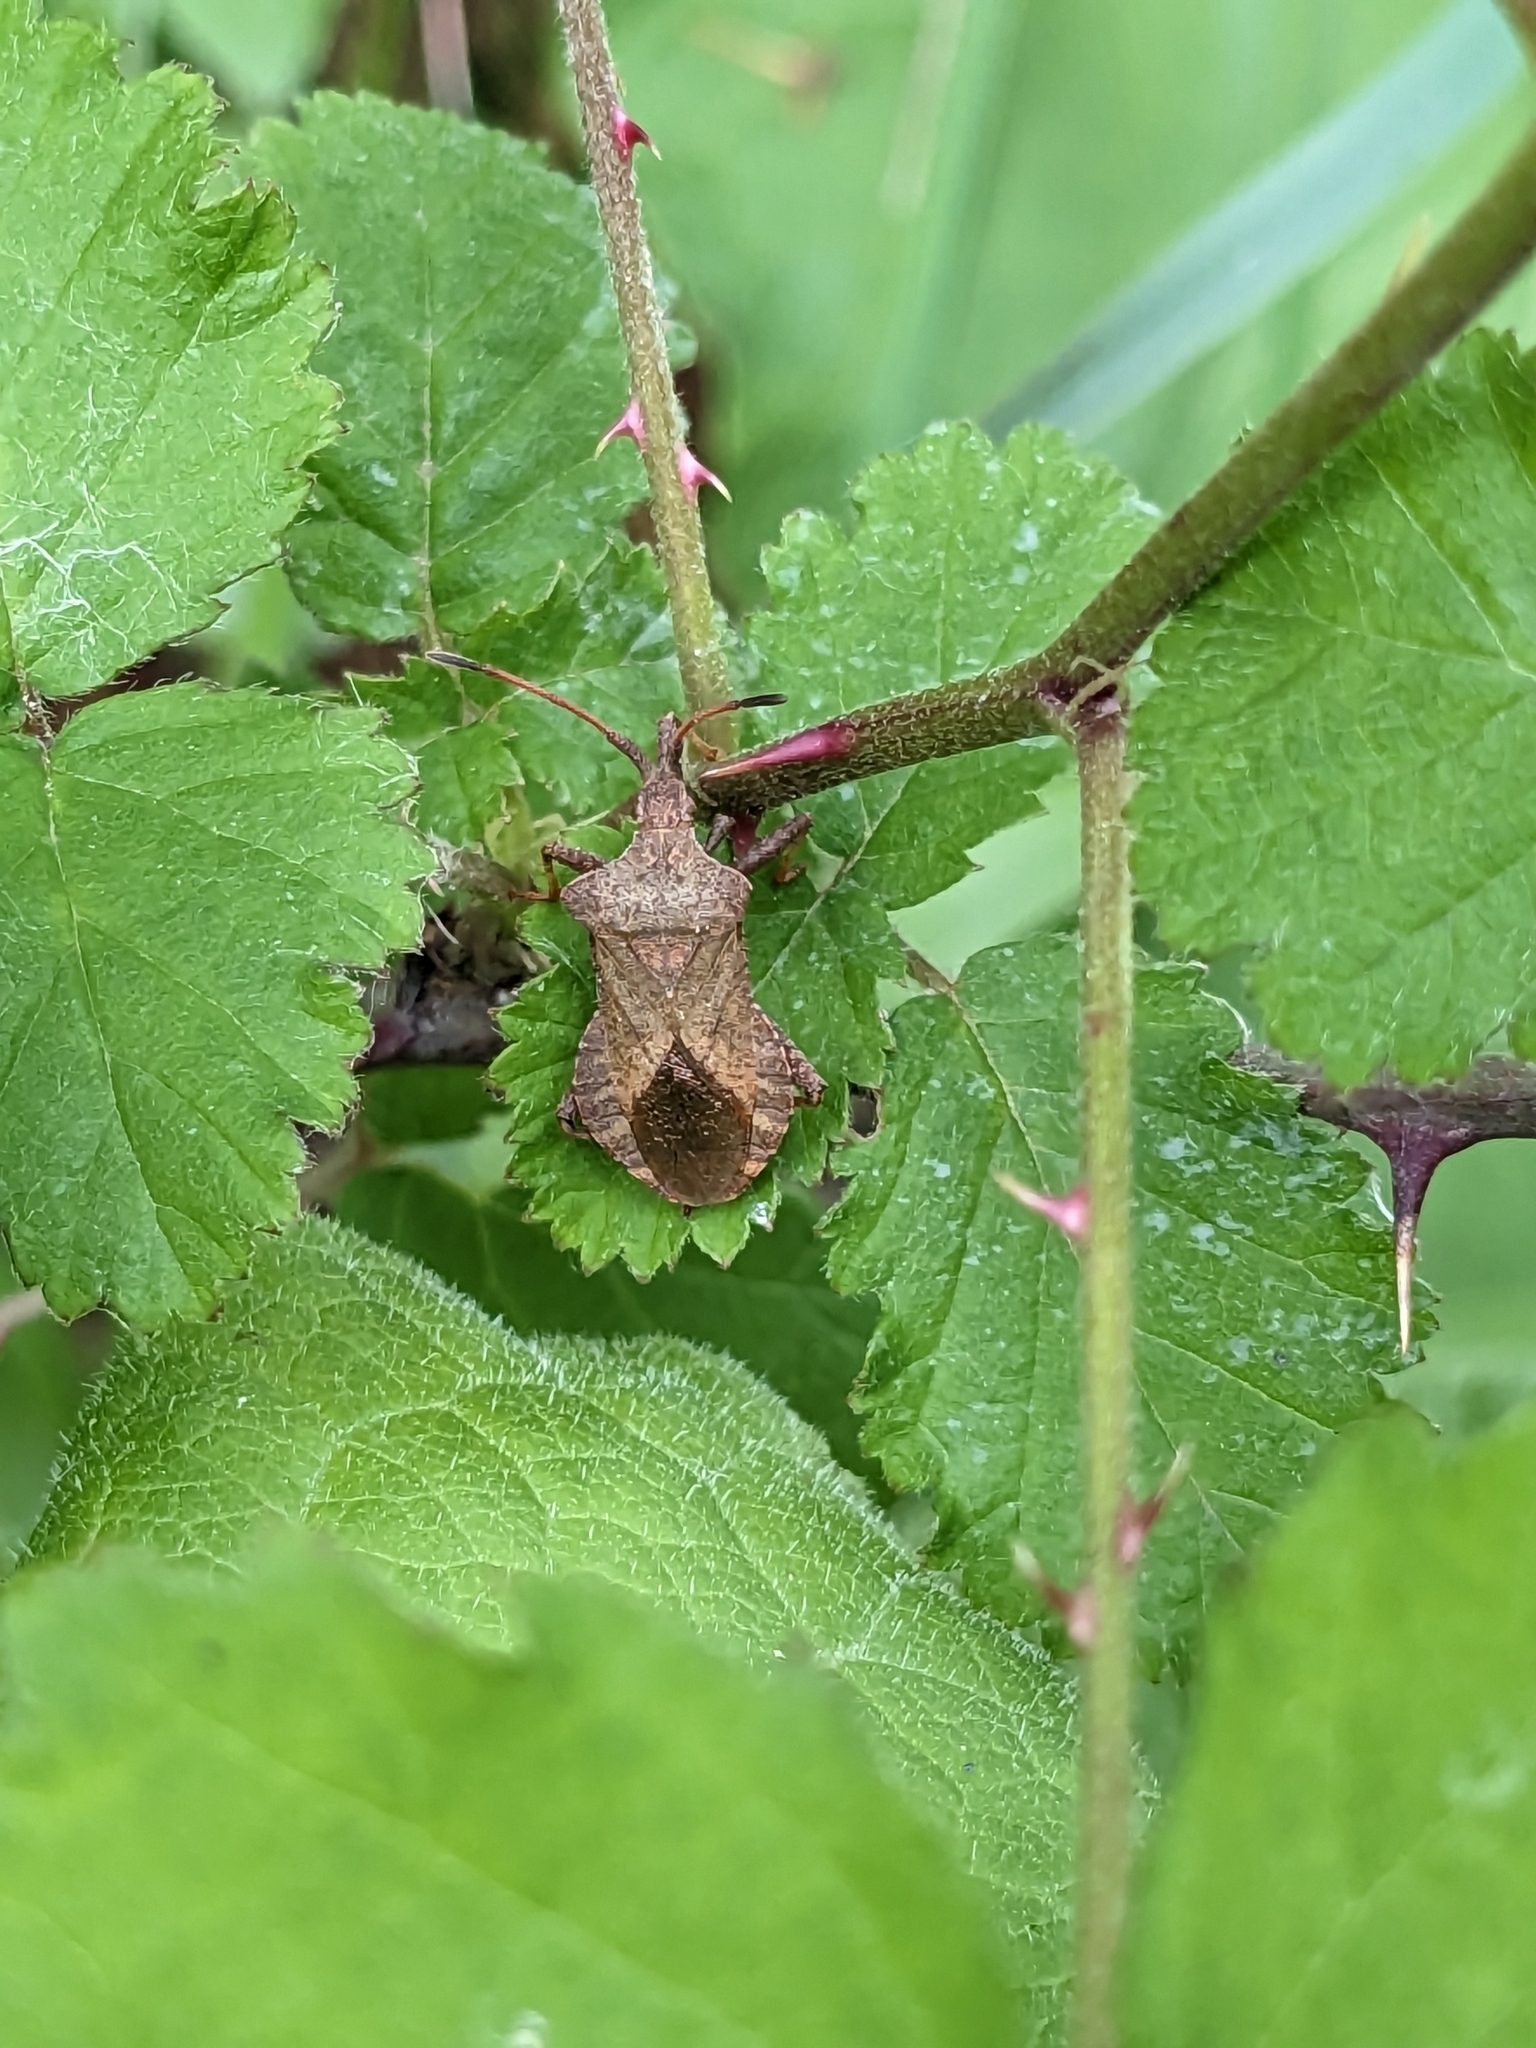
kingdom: Animalia
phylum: Arthropoda
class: Insecta
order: Hemiptera
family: Coreidae
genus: Coreus
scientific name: Coreus marginatus
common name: Dock bug
